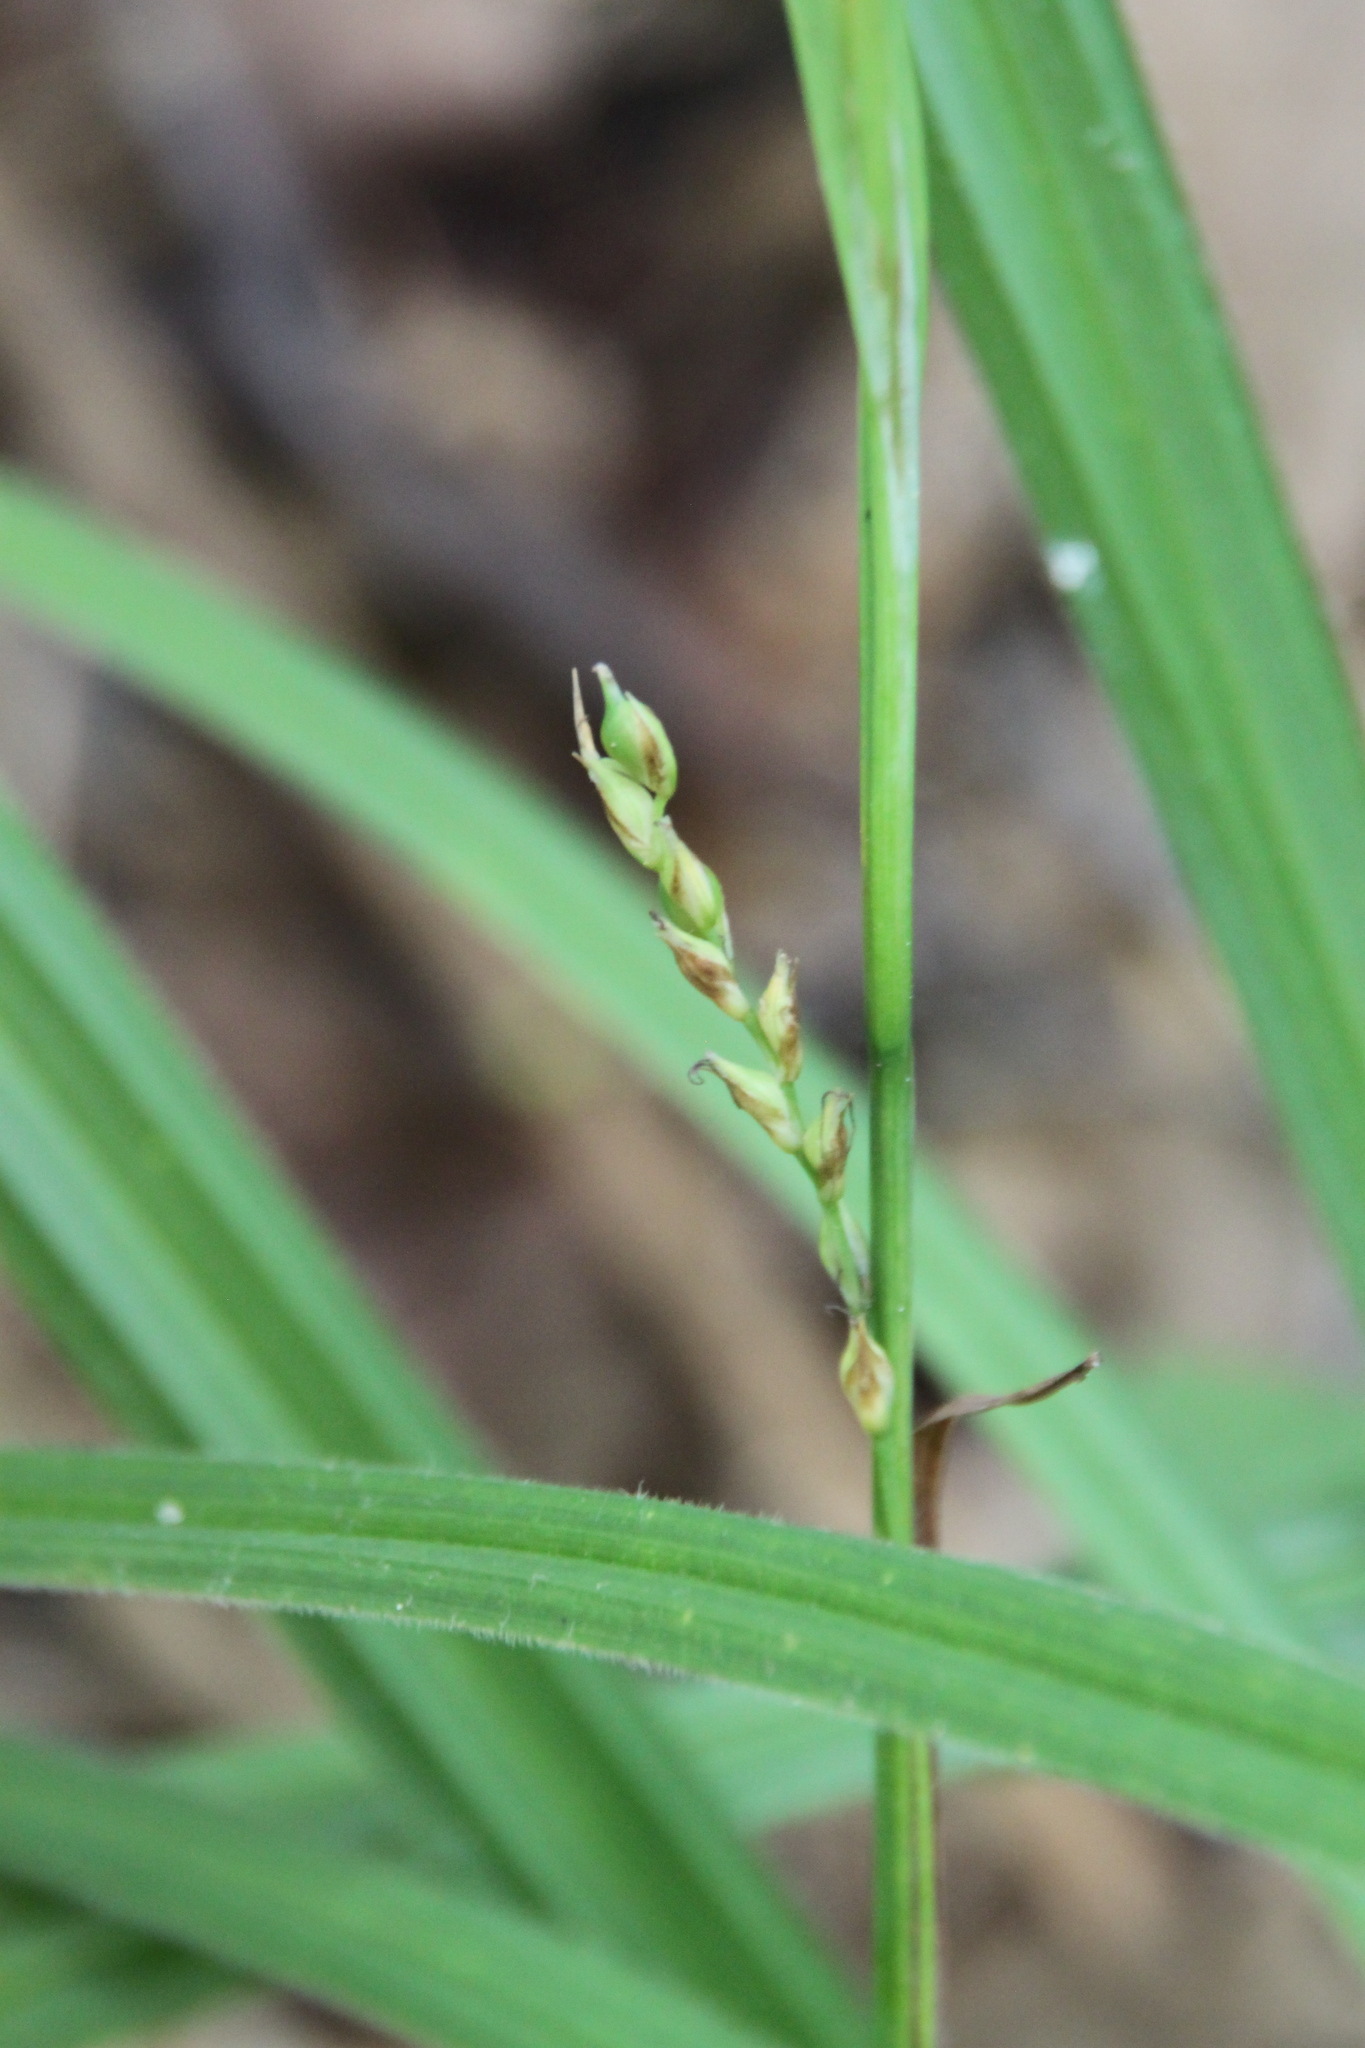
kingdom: Plantae
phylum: Tracheophyta
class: Liliopsida
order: Poales
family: Cyperaceae
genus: Carex
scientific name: Carex pilosa
